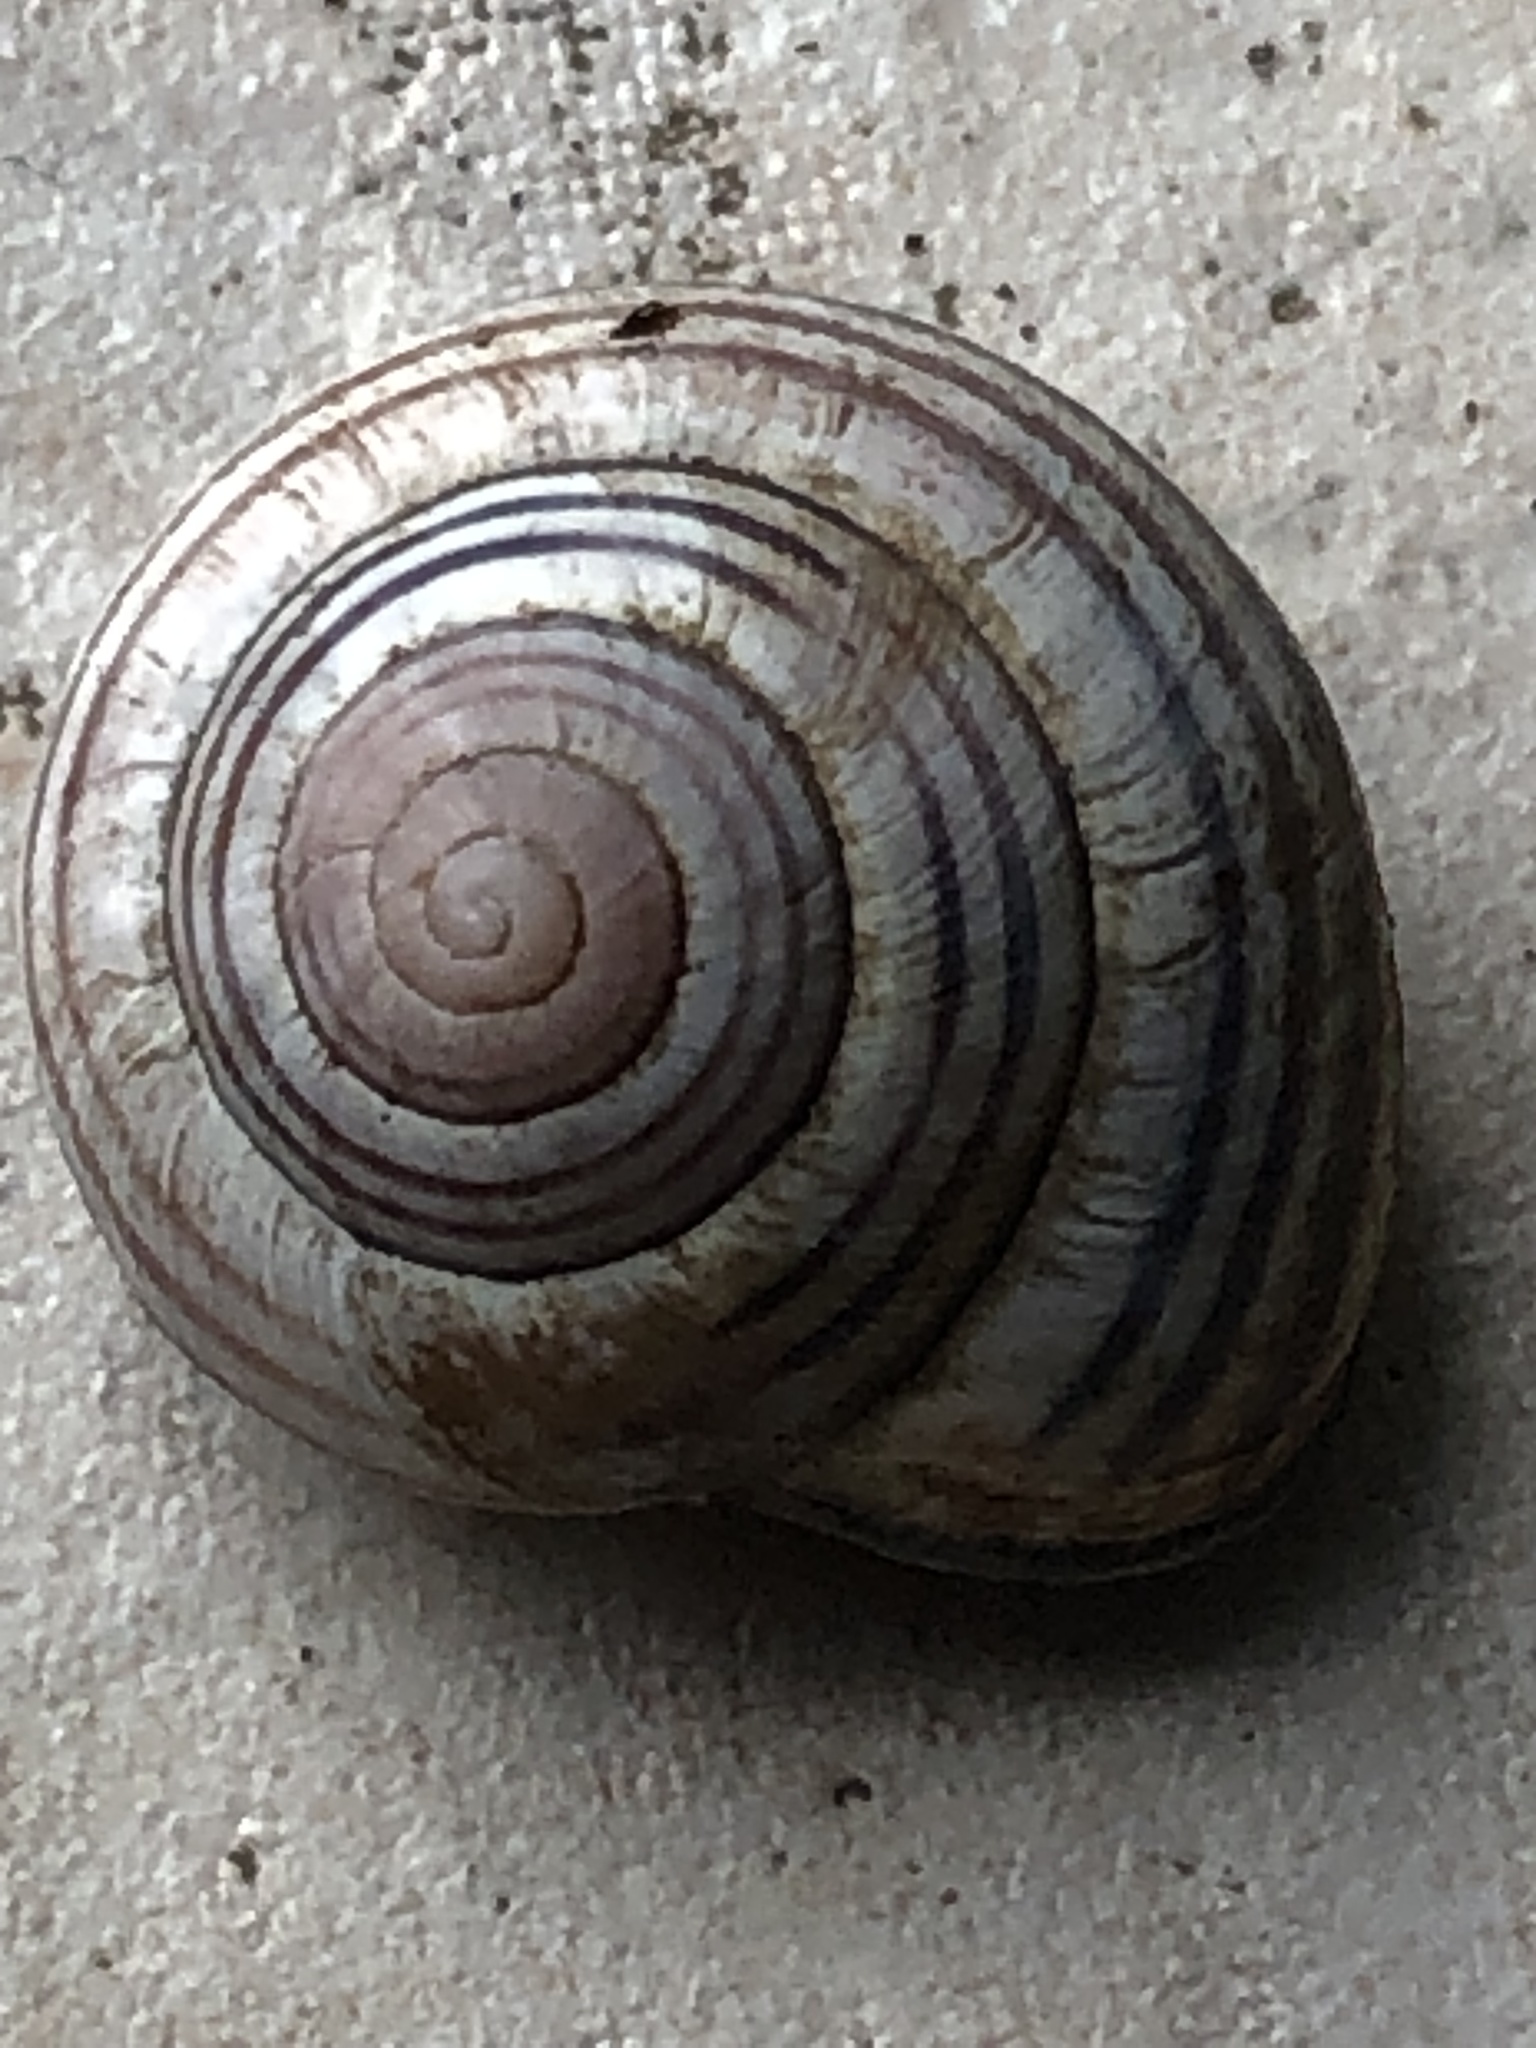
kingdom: Animalia
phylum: Mollusca
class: Gastropoda
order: Stylommatophora
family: Helicidae
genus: Cepaea
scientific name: Cepaea nemoralis
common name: Grovesnail
